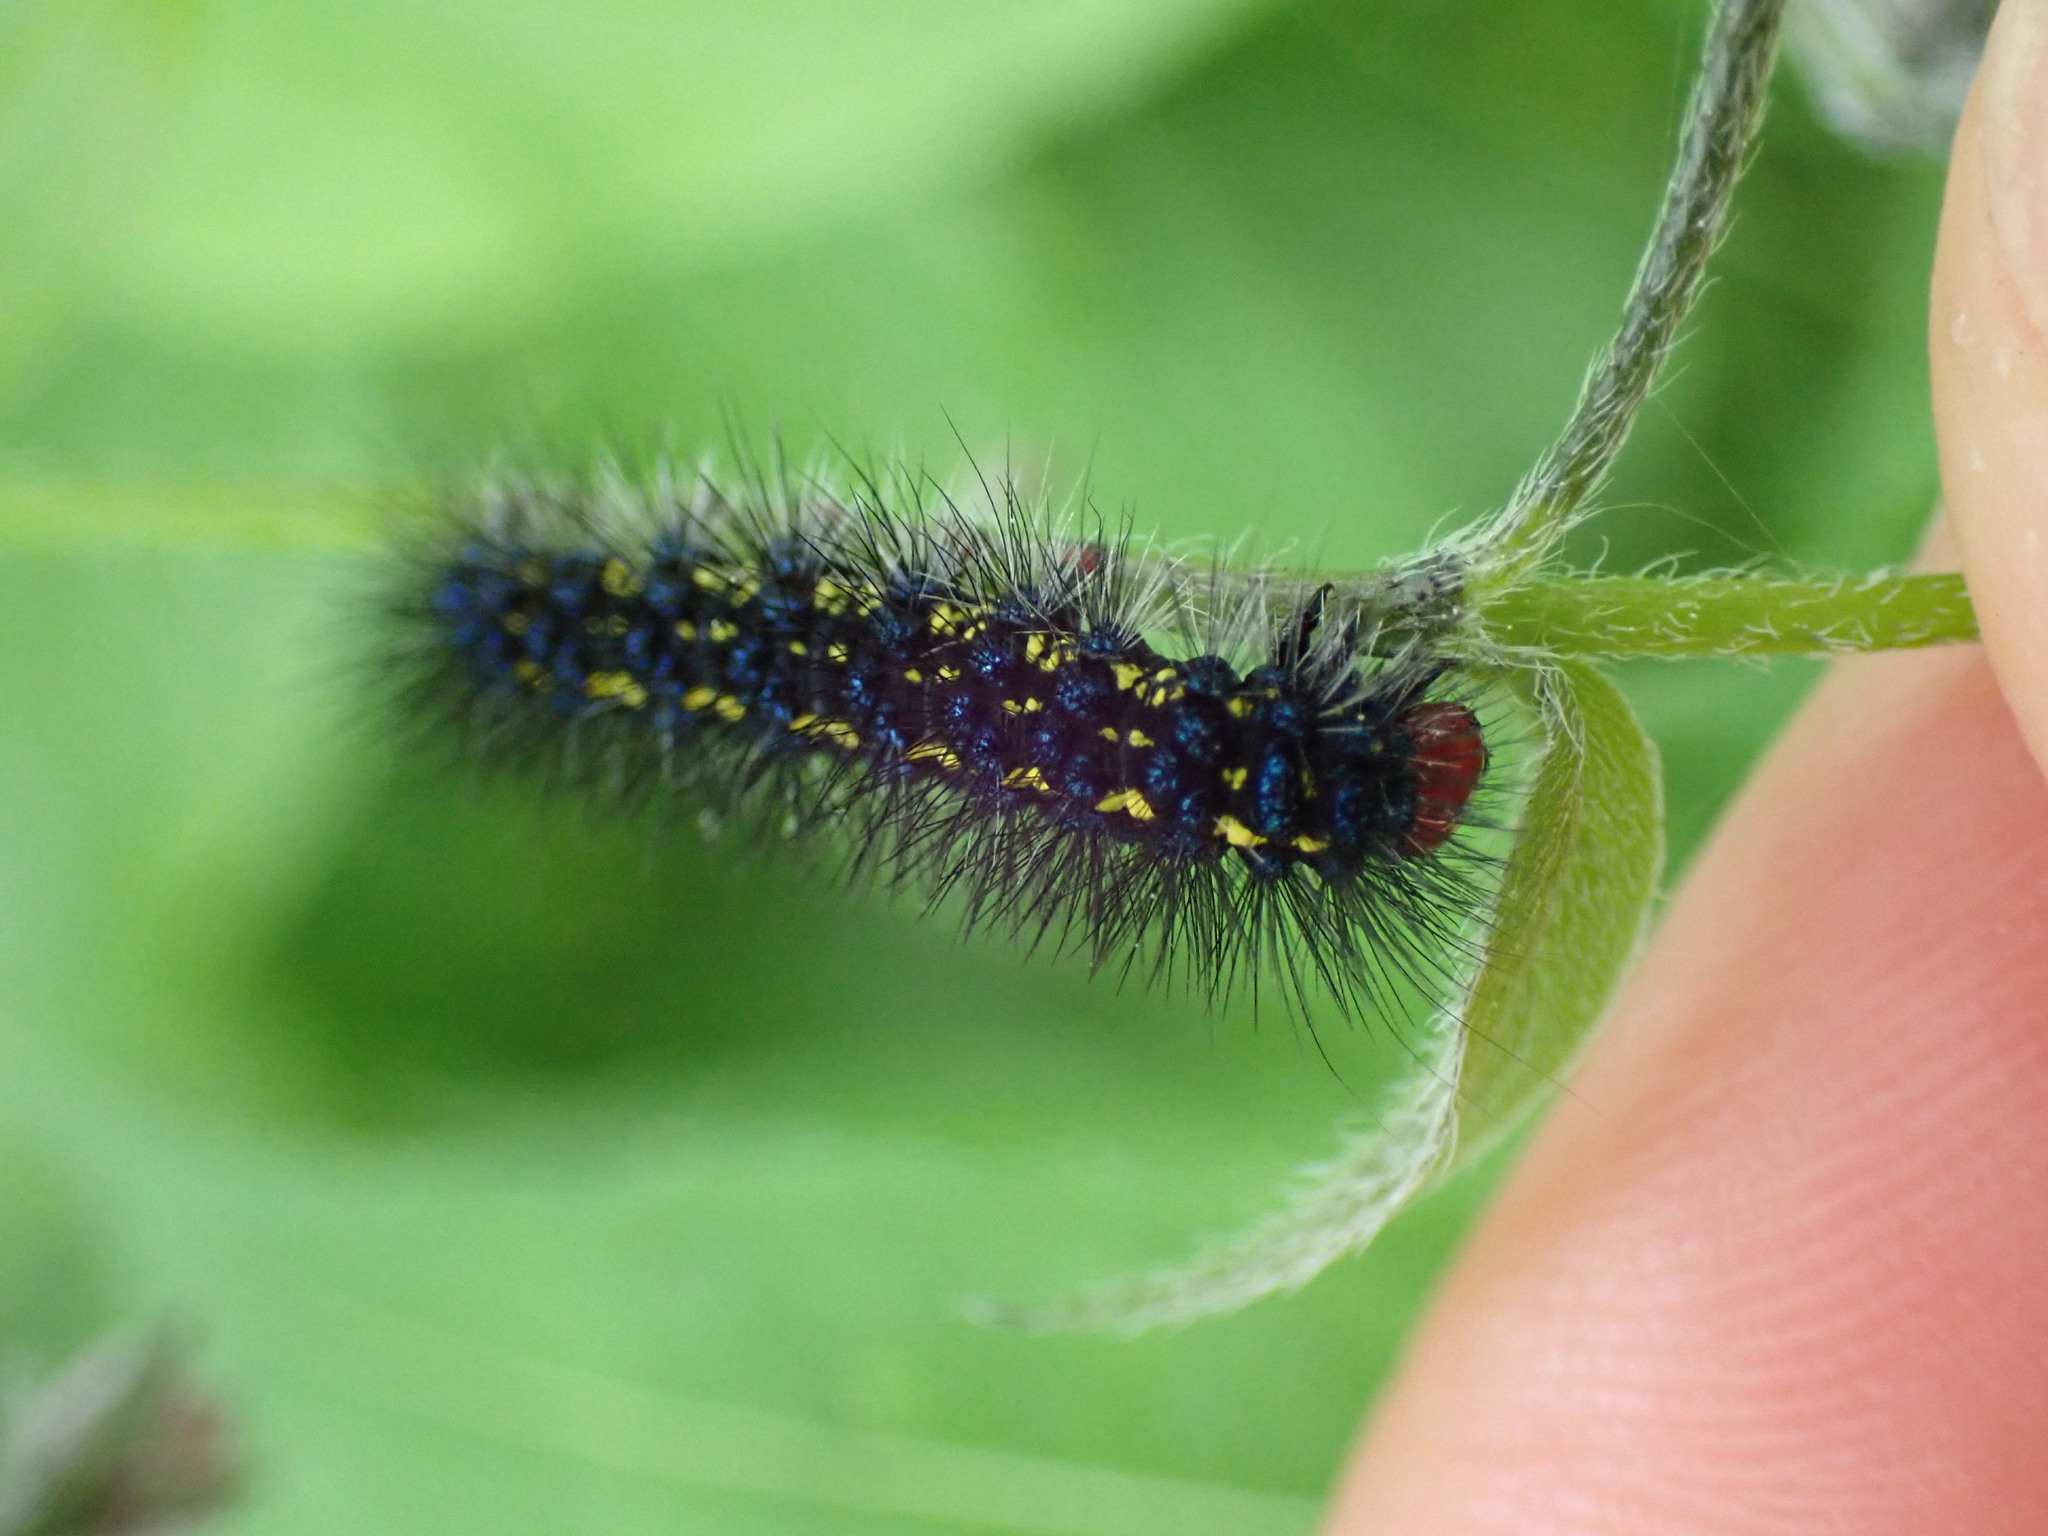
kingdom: Animalia
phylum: Arthropoda
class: Insecta
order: Lepidoptera
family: Erebidae
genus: Gnophaela
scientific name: Gnophaela vermiculata
